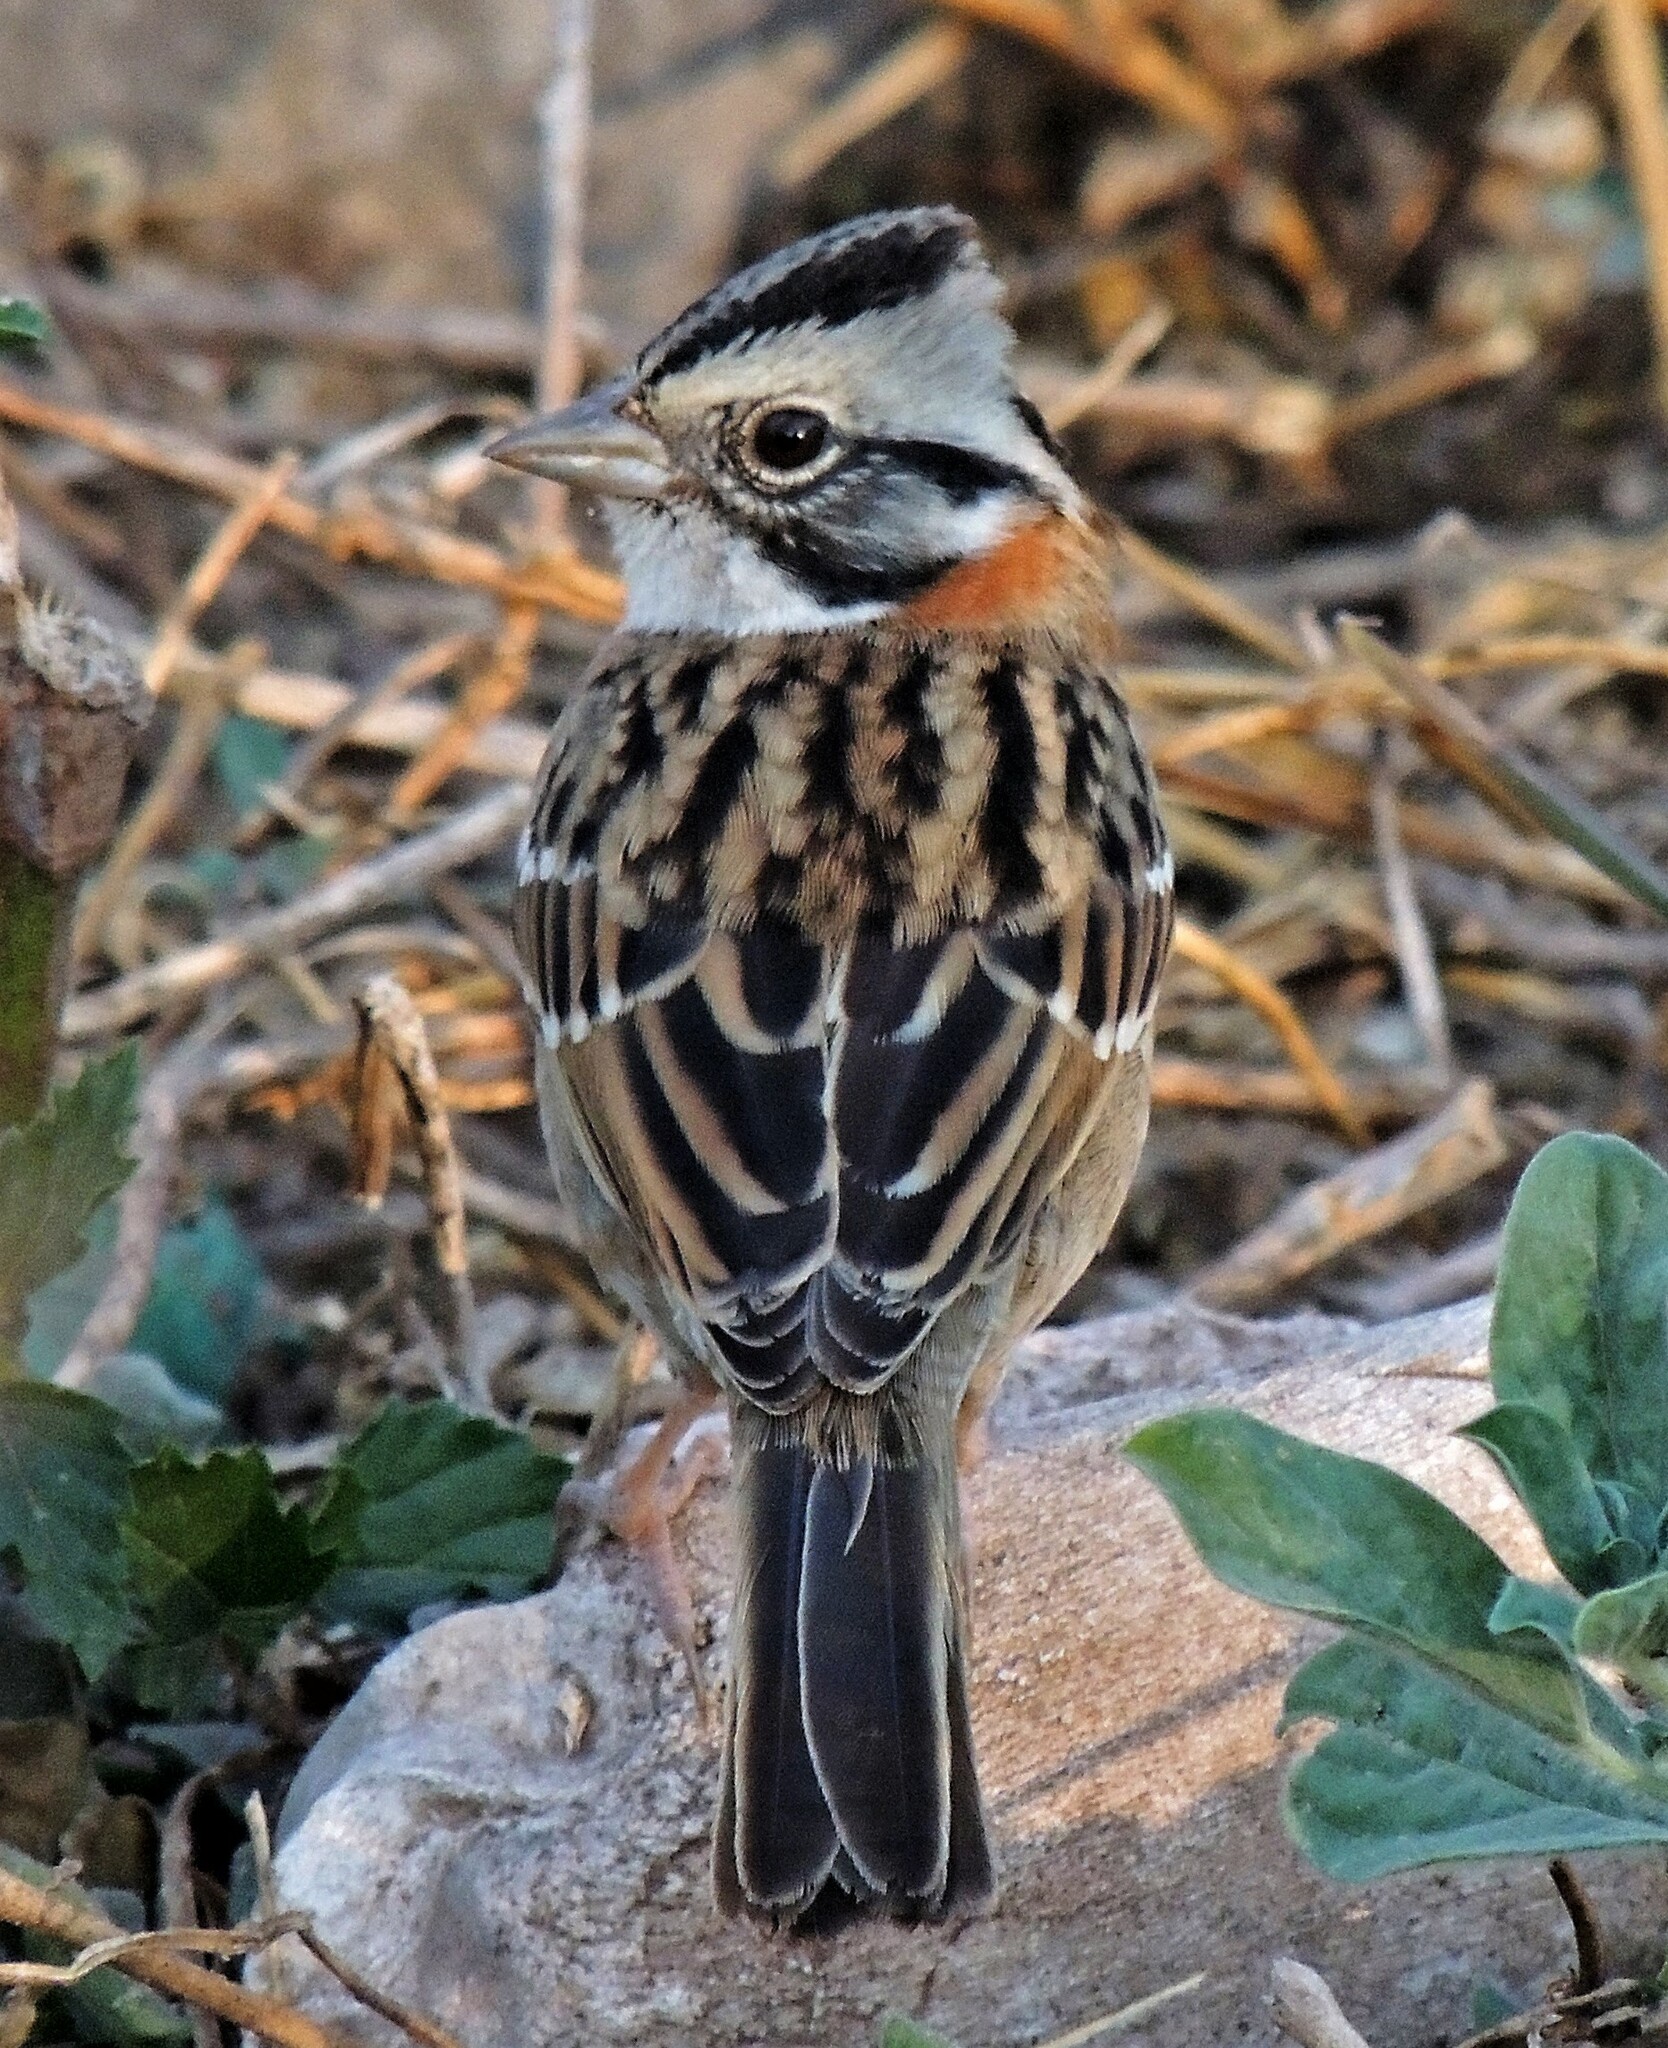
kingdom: Animalia
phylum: Chordata
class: Aves
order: Passeriformes
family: Passerellidae
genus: Zonotrichia
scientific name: Zonotrichia capensis
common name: Rufous-collared sparrow
